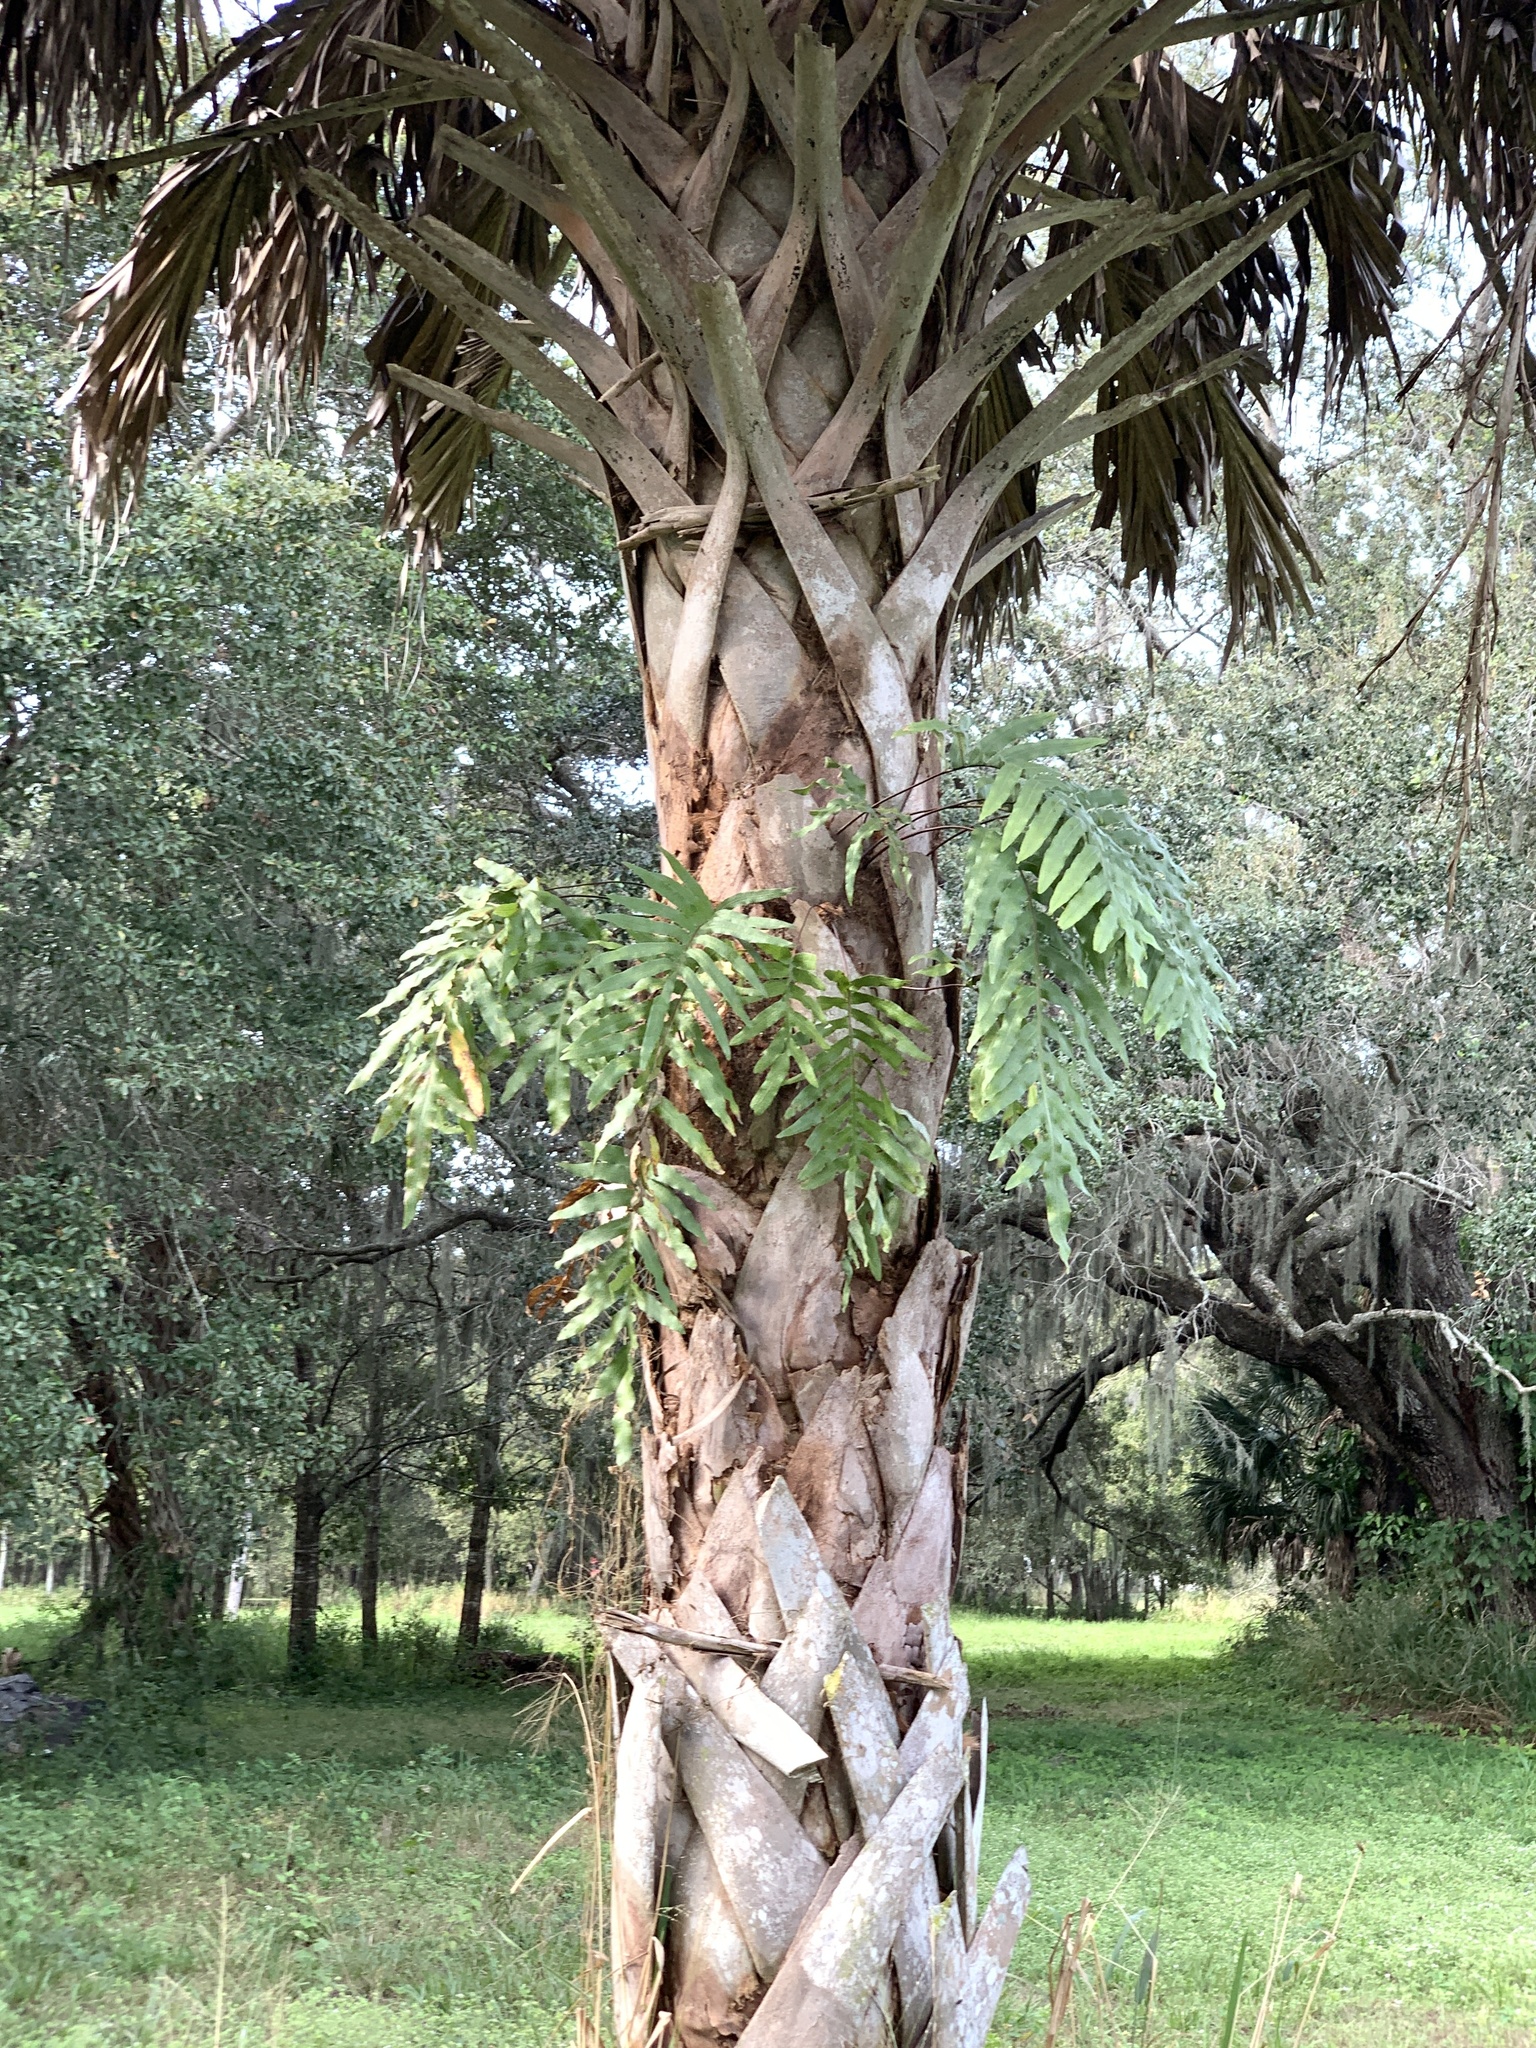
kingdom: Plantae
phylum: Tracheophyta
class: Polypodiopsida
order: Polypodiales
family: Polypodiaceae
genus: Phlebodium
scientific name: Phlebodium aureum
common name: Gold-foot fern
